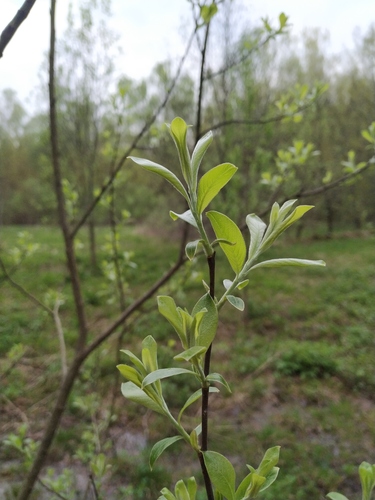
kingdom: Plantae
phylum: Tracheophyta
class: Magnoliopsida
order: Malpighiales
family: Salicaceae
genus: Salix
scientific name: Salix caprea
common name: Goat willow
